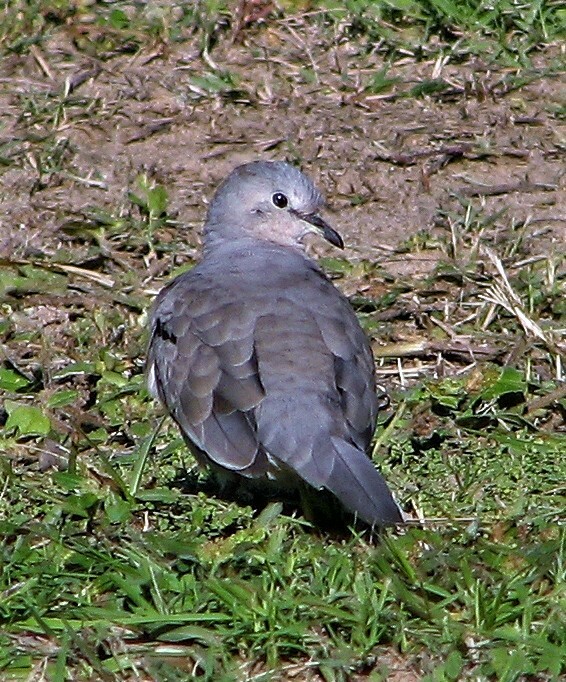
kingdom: Animalia
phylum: Chordata
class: Aves
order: Columbiformes
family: Columbidae
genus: Columbina
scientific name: Columbina picui
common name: Picui ground dove
